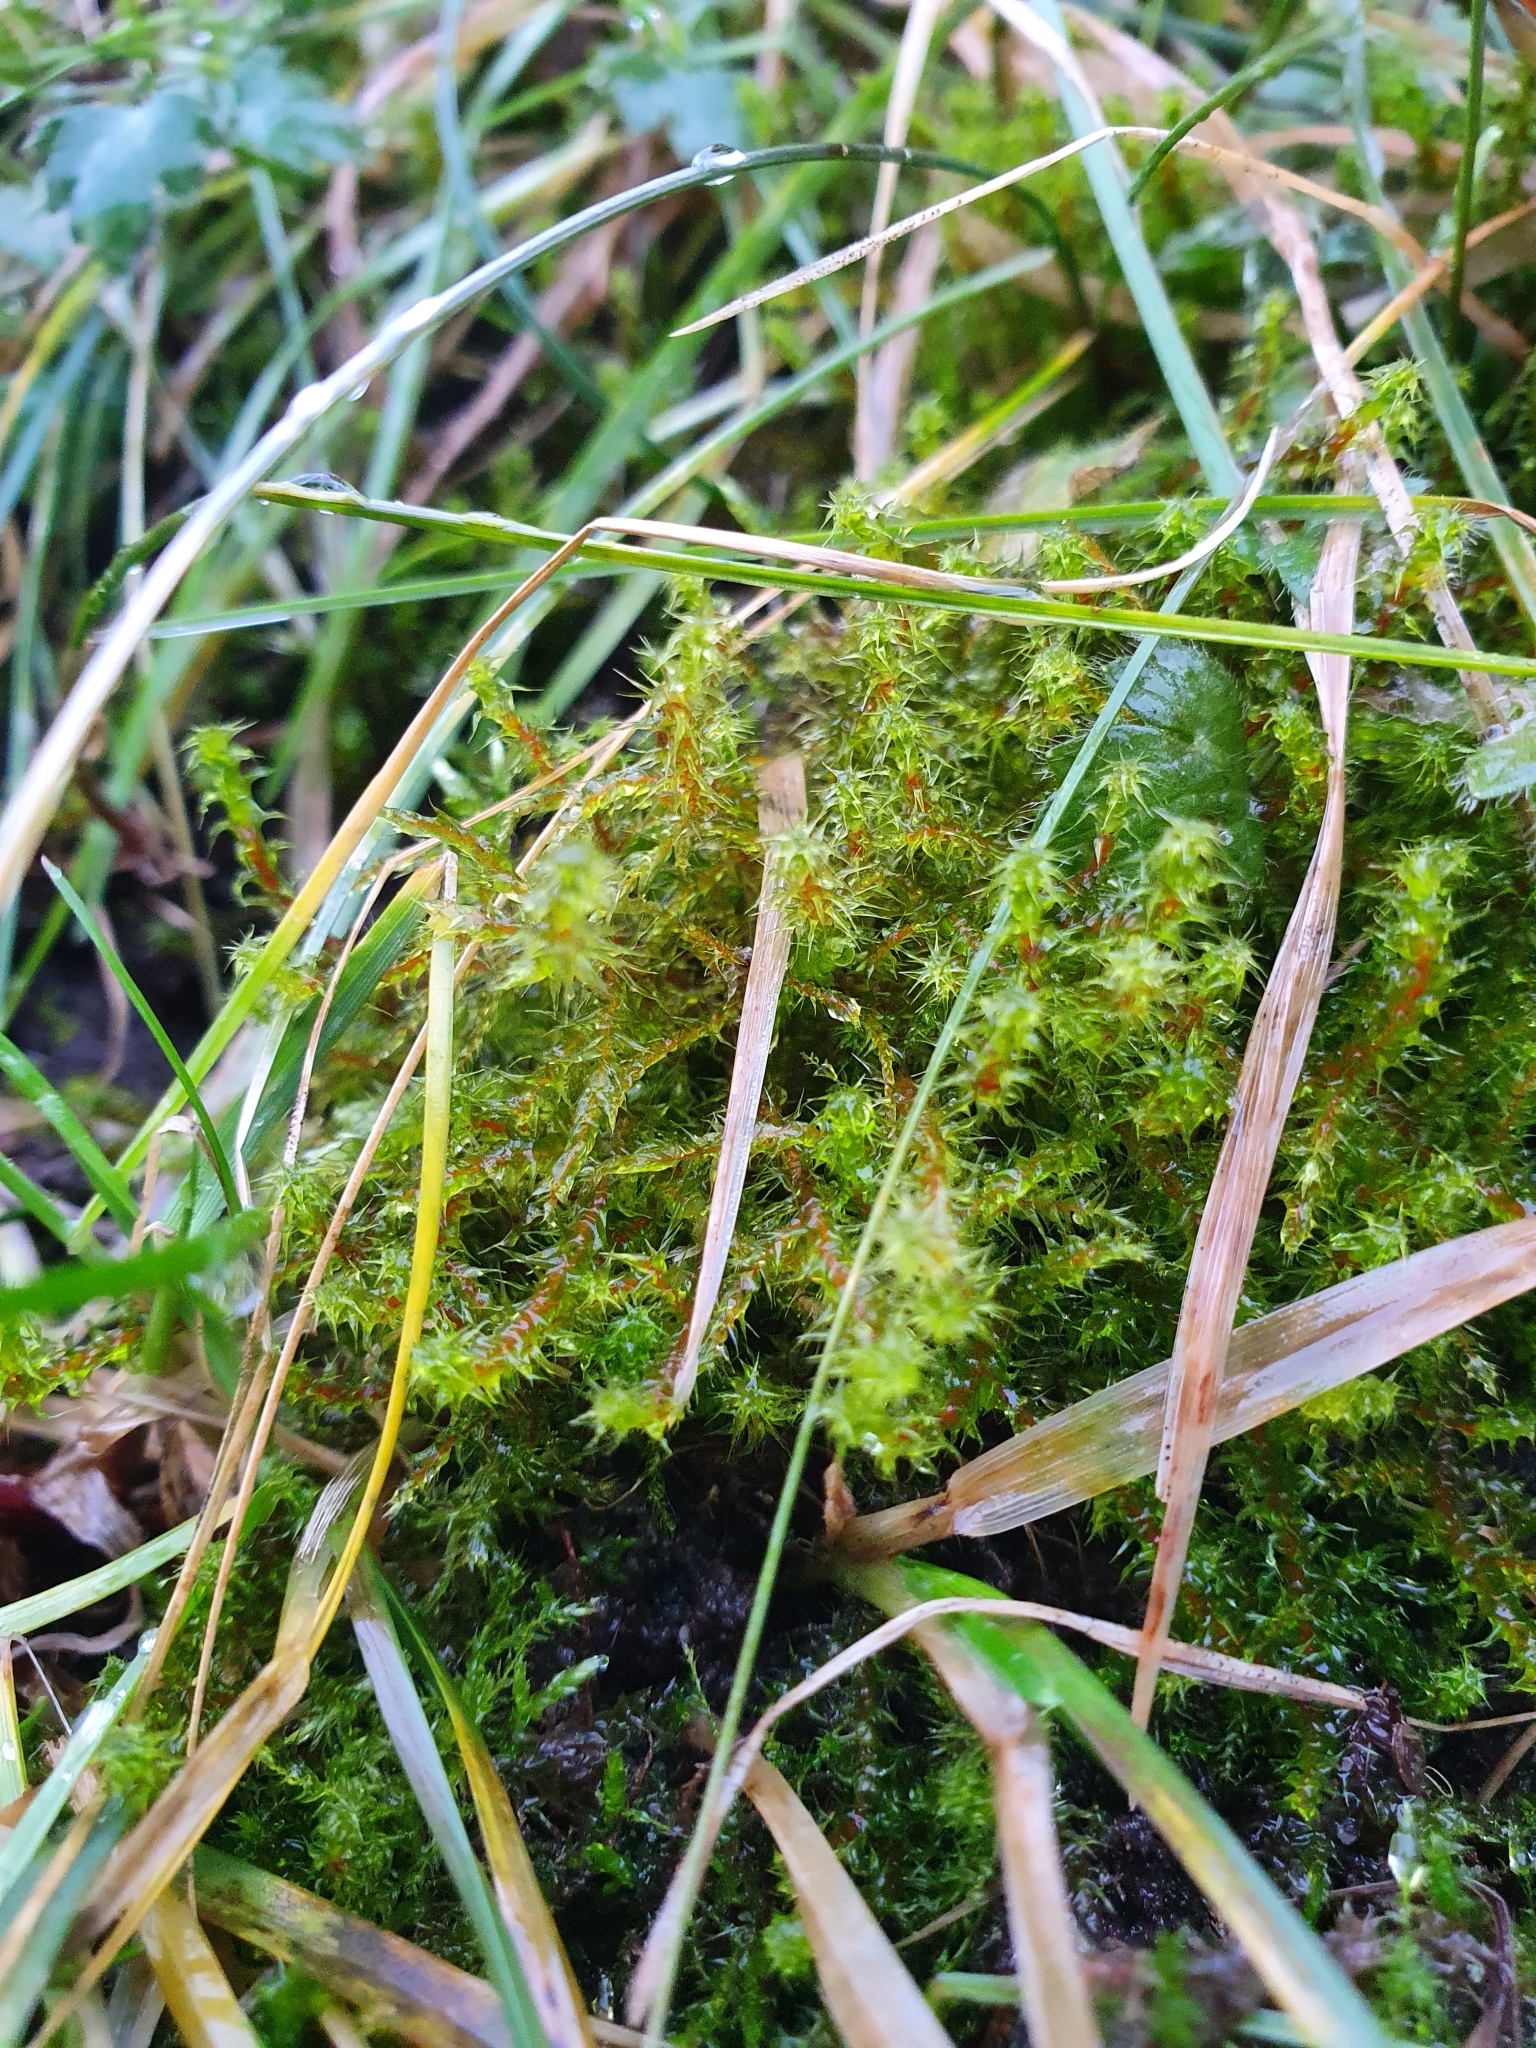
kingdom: Plantae
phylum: Bryophyta
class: Bryopsida
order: Hypnales
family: Hylocomiaceae
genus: Rhytidiadelphus
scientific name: Rhytidiadelphus squarrosus
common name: Springy turf-moss
